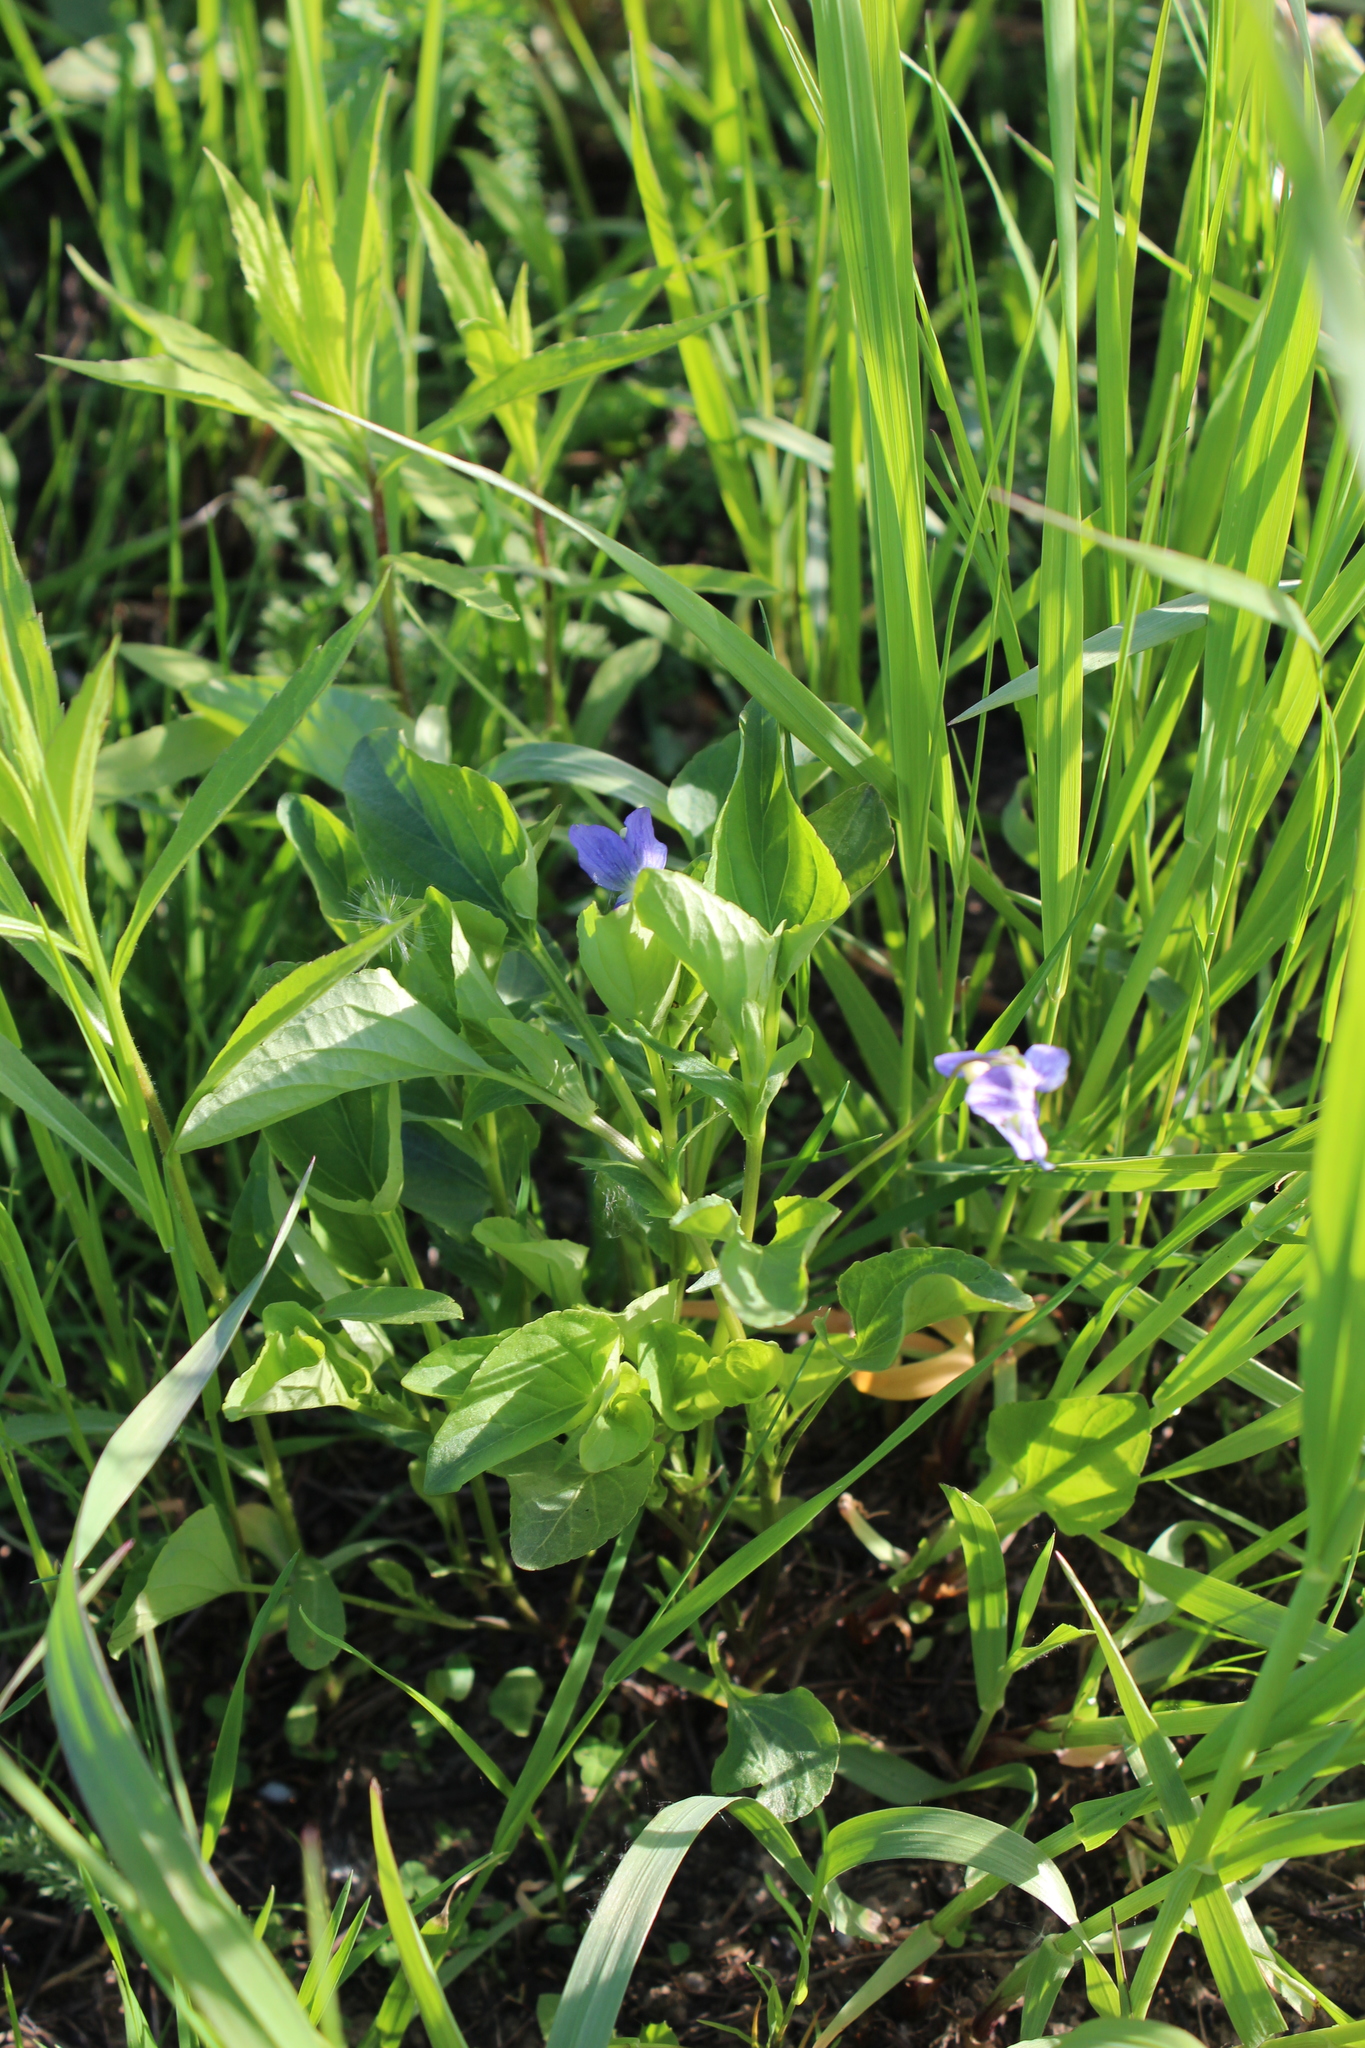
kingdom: Plantae
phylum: Tracheophyta
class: Magnoliopsida
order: Malpighiales
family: Violaceae
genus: Viola
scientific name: Viola canina
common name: Heath dog-violet
